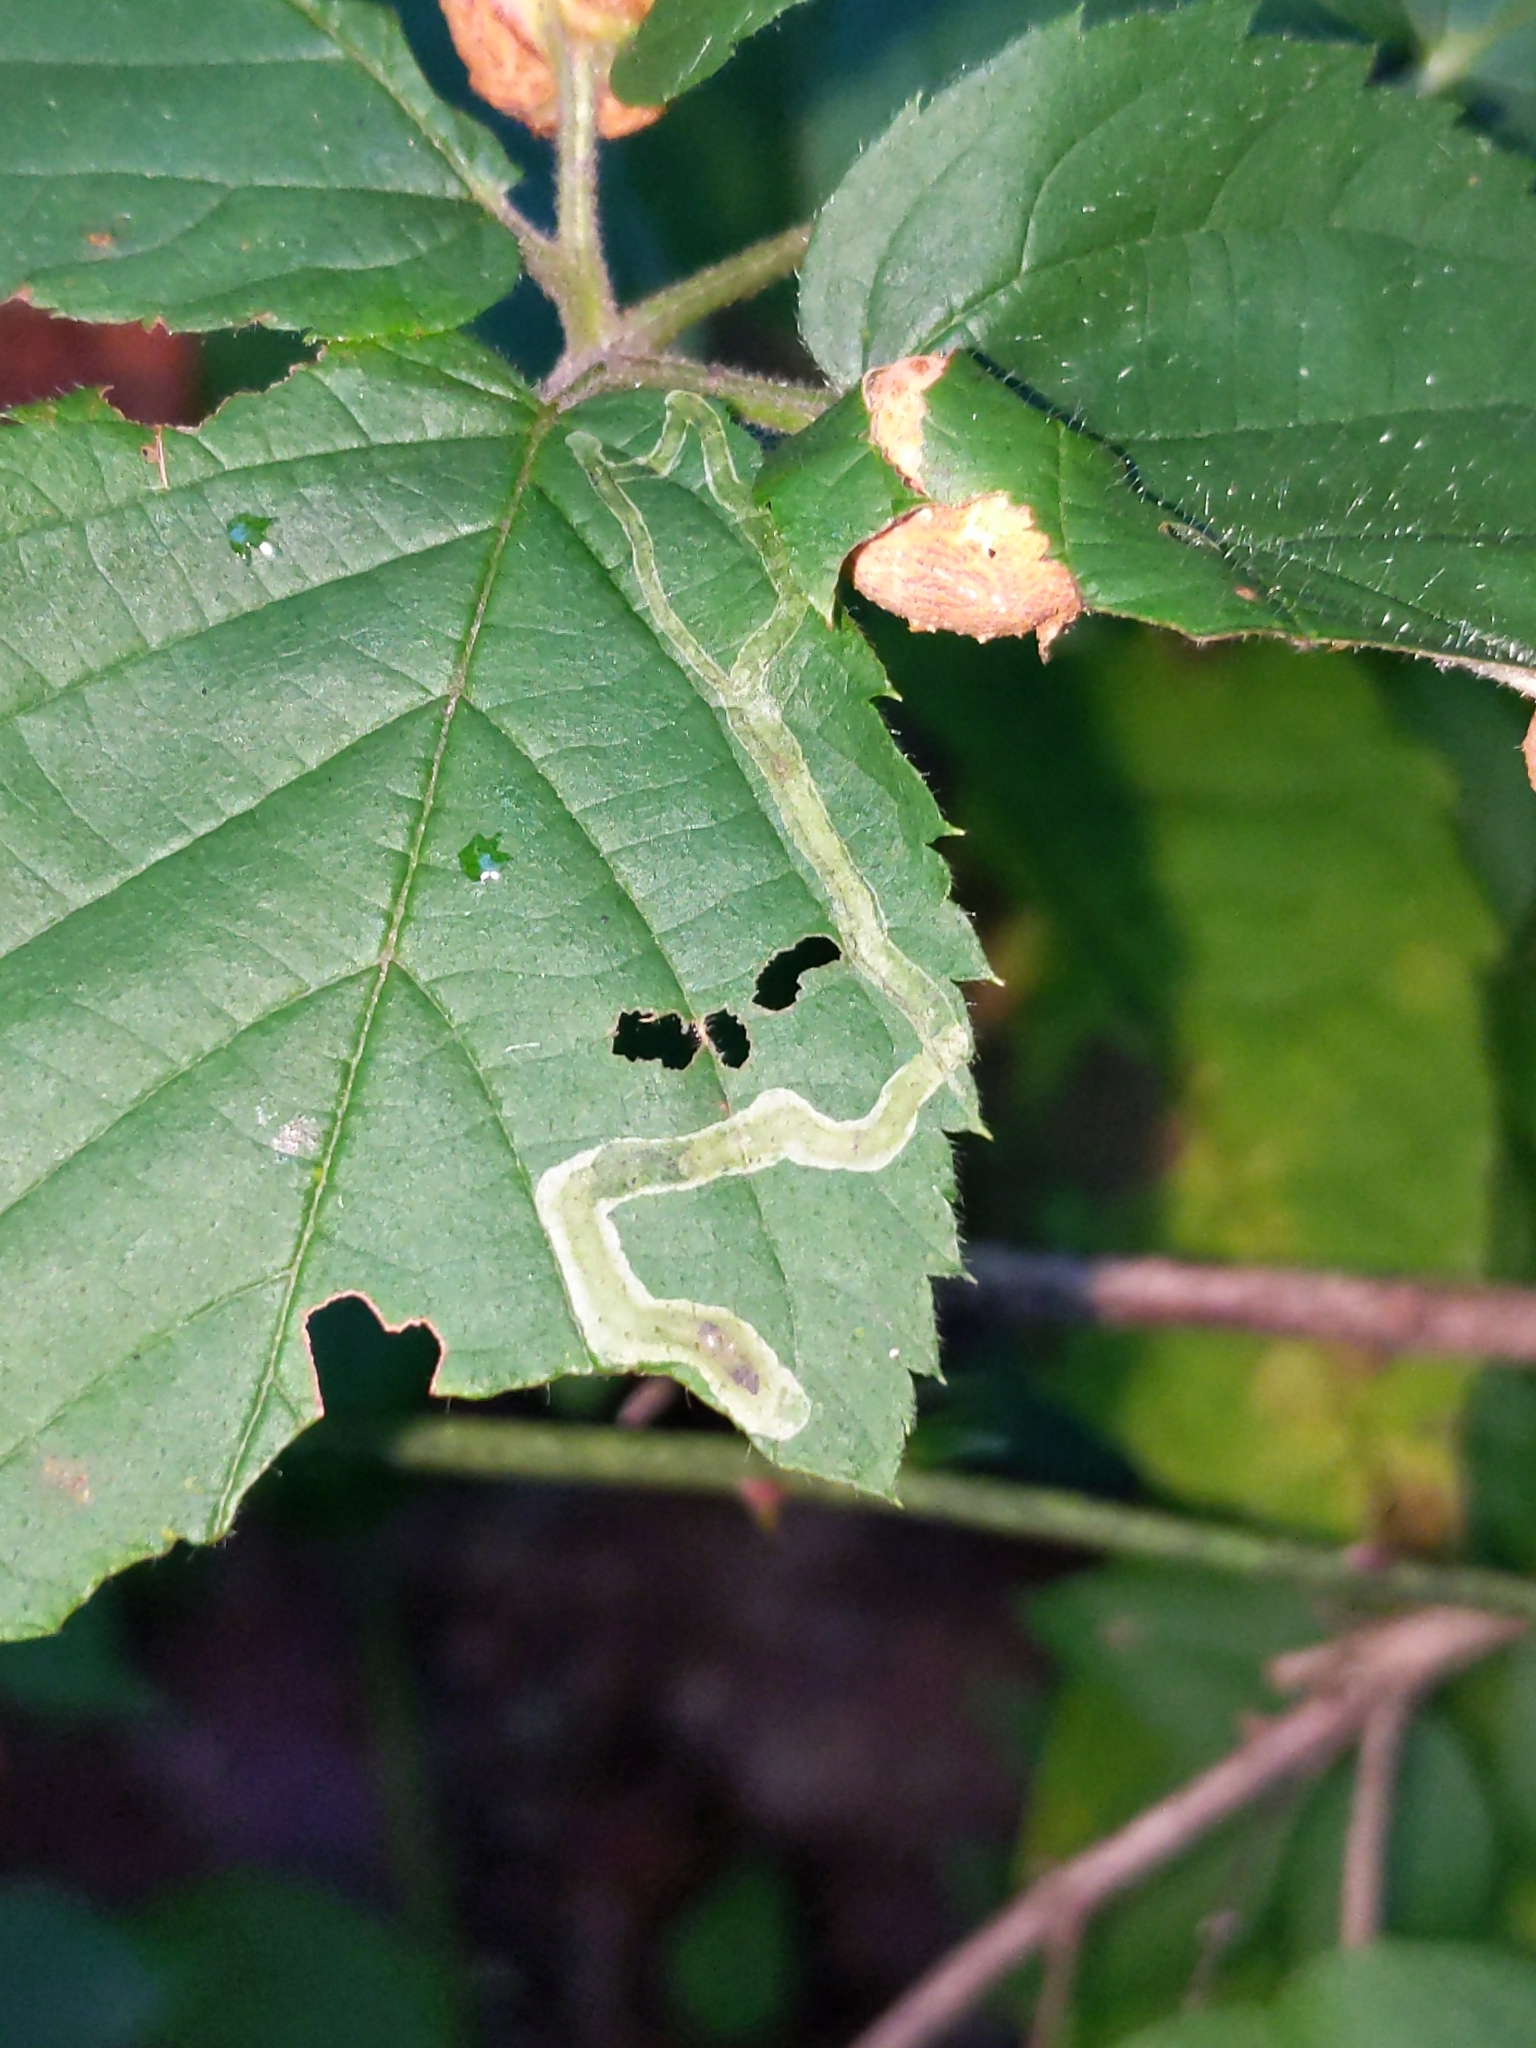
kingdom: Animalia
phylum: Arthropoda
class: Insecta
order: Diptera
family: Agromyzidae
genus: Agromyza
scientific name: Agromyza vockerothi
